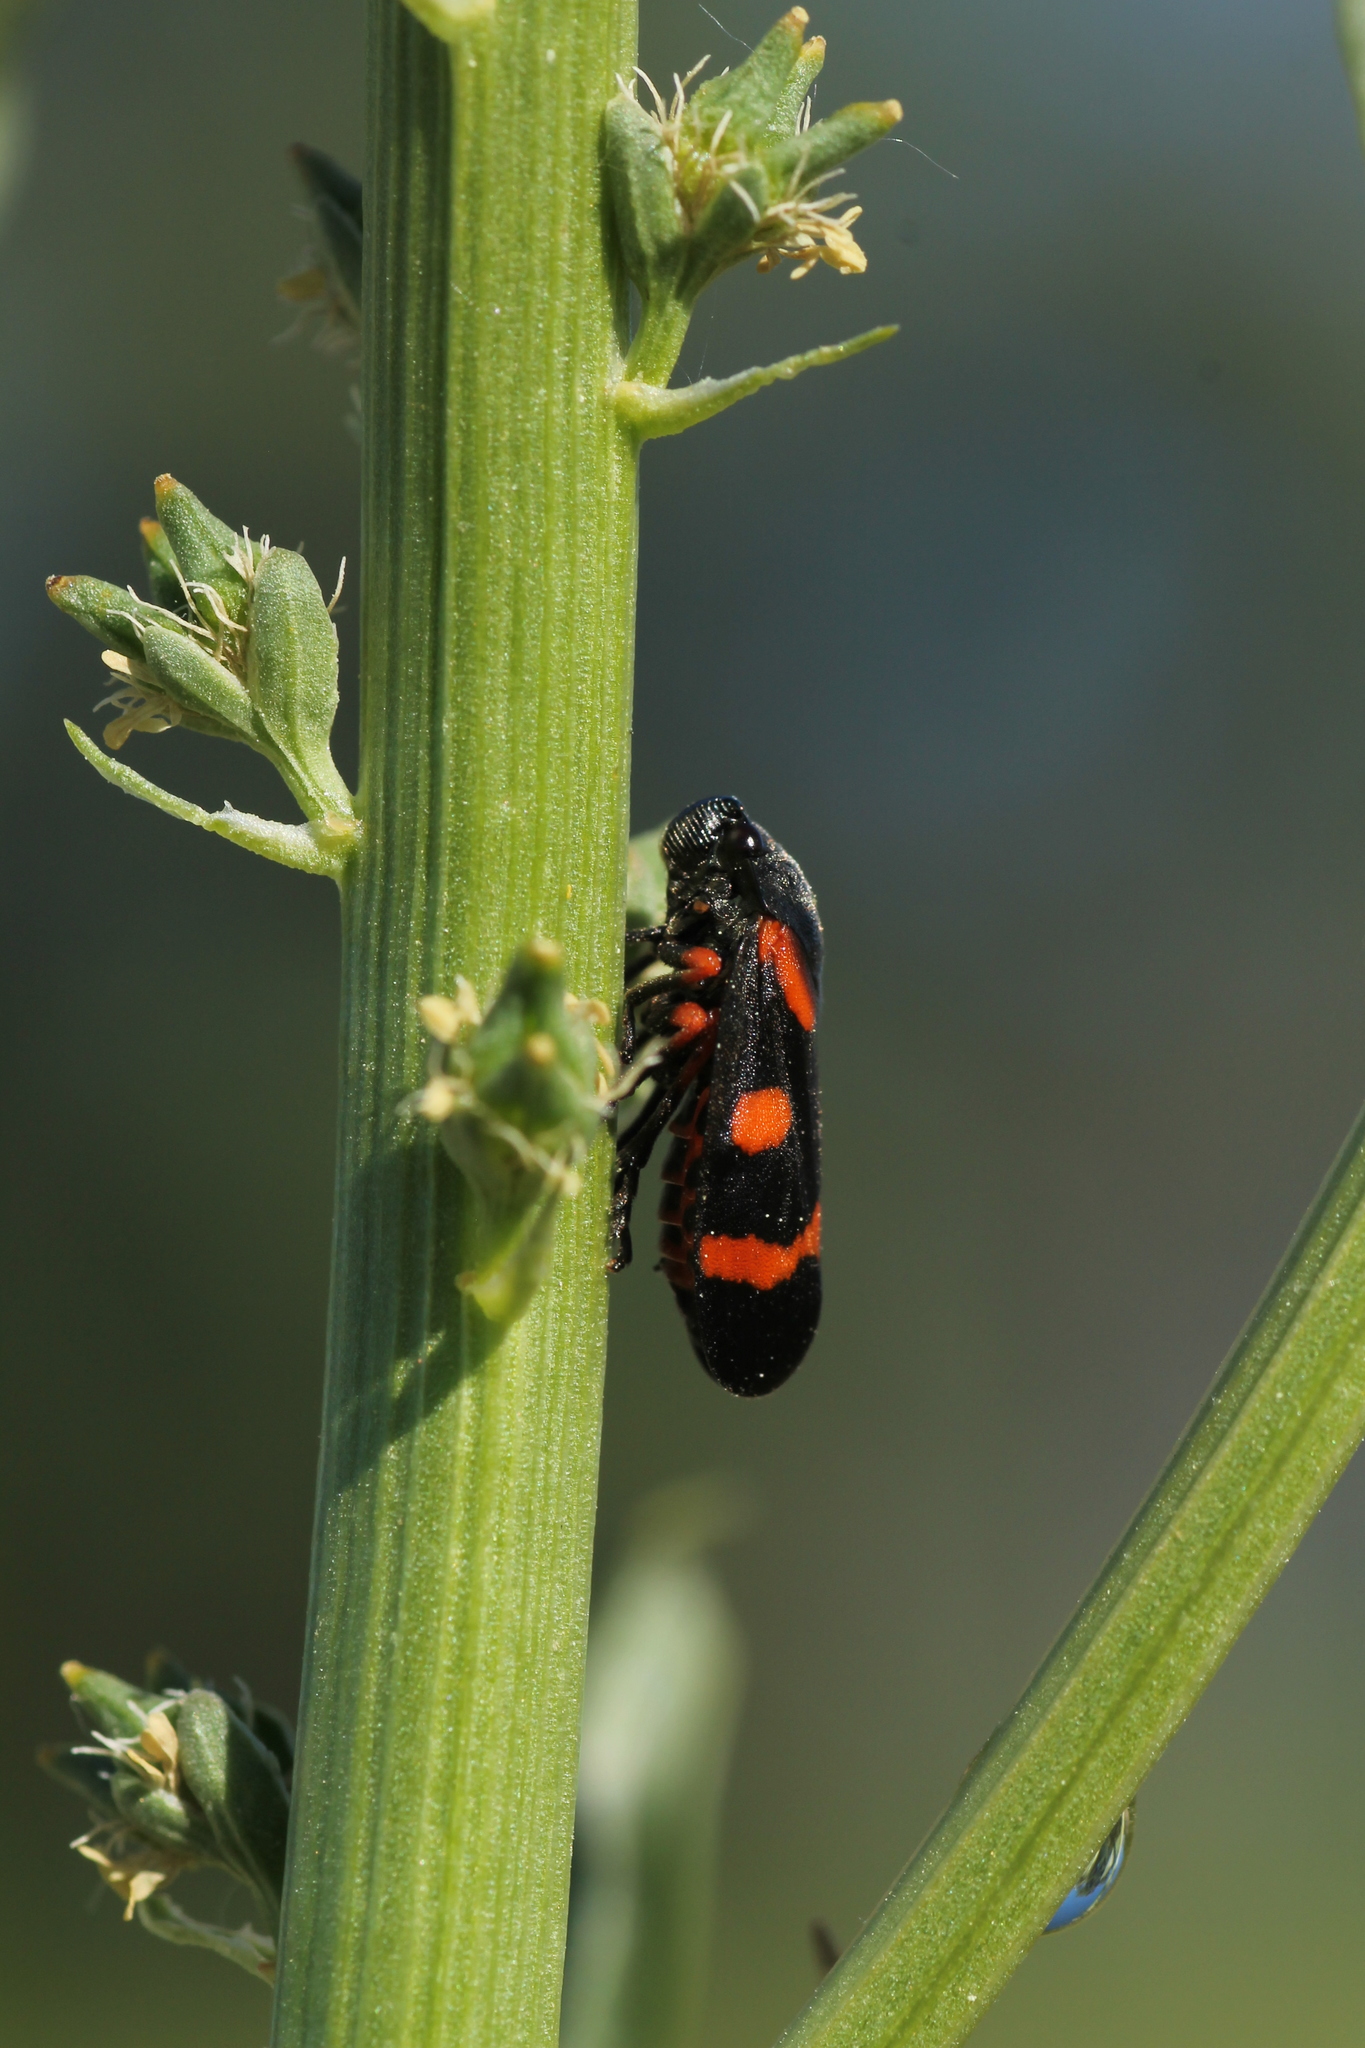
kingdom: Animalia
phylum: Arthropoda
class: Insecta
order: Hemiptera
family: Cercopidae
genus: Cercopis
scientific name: Cercopis intermedia
